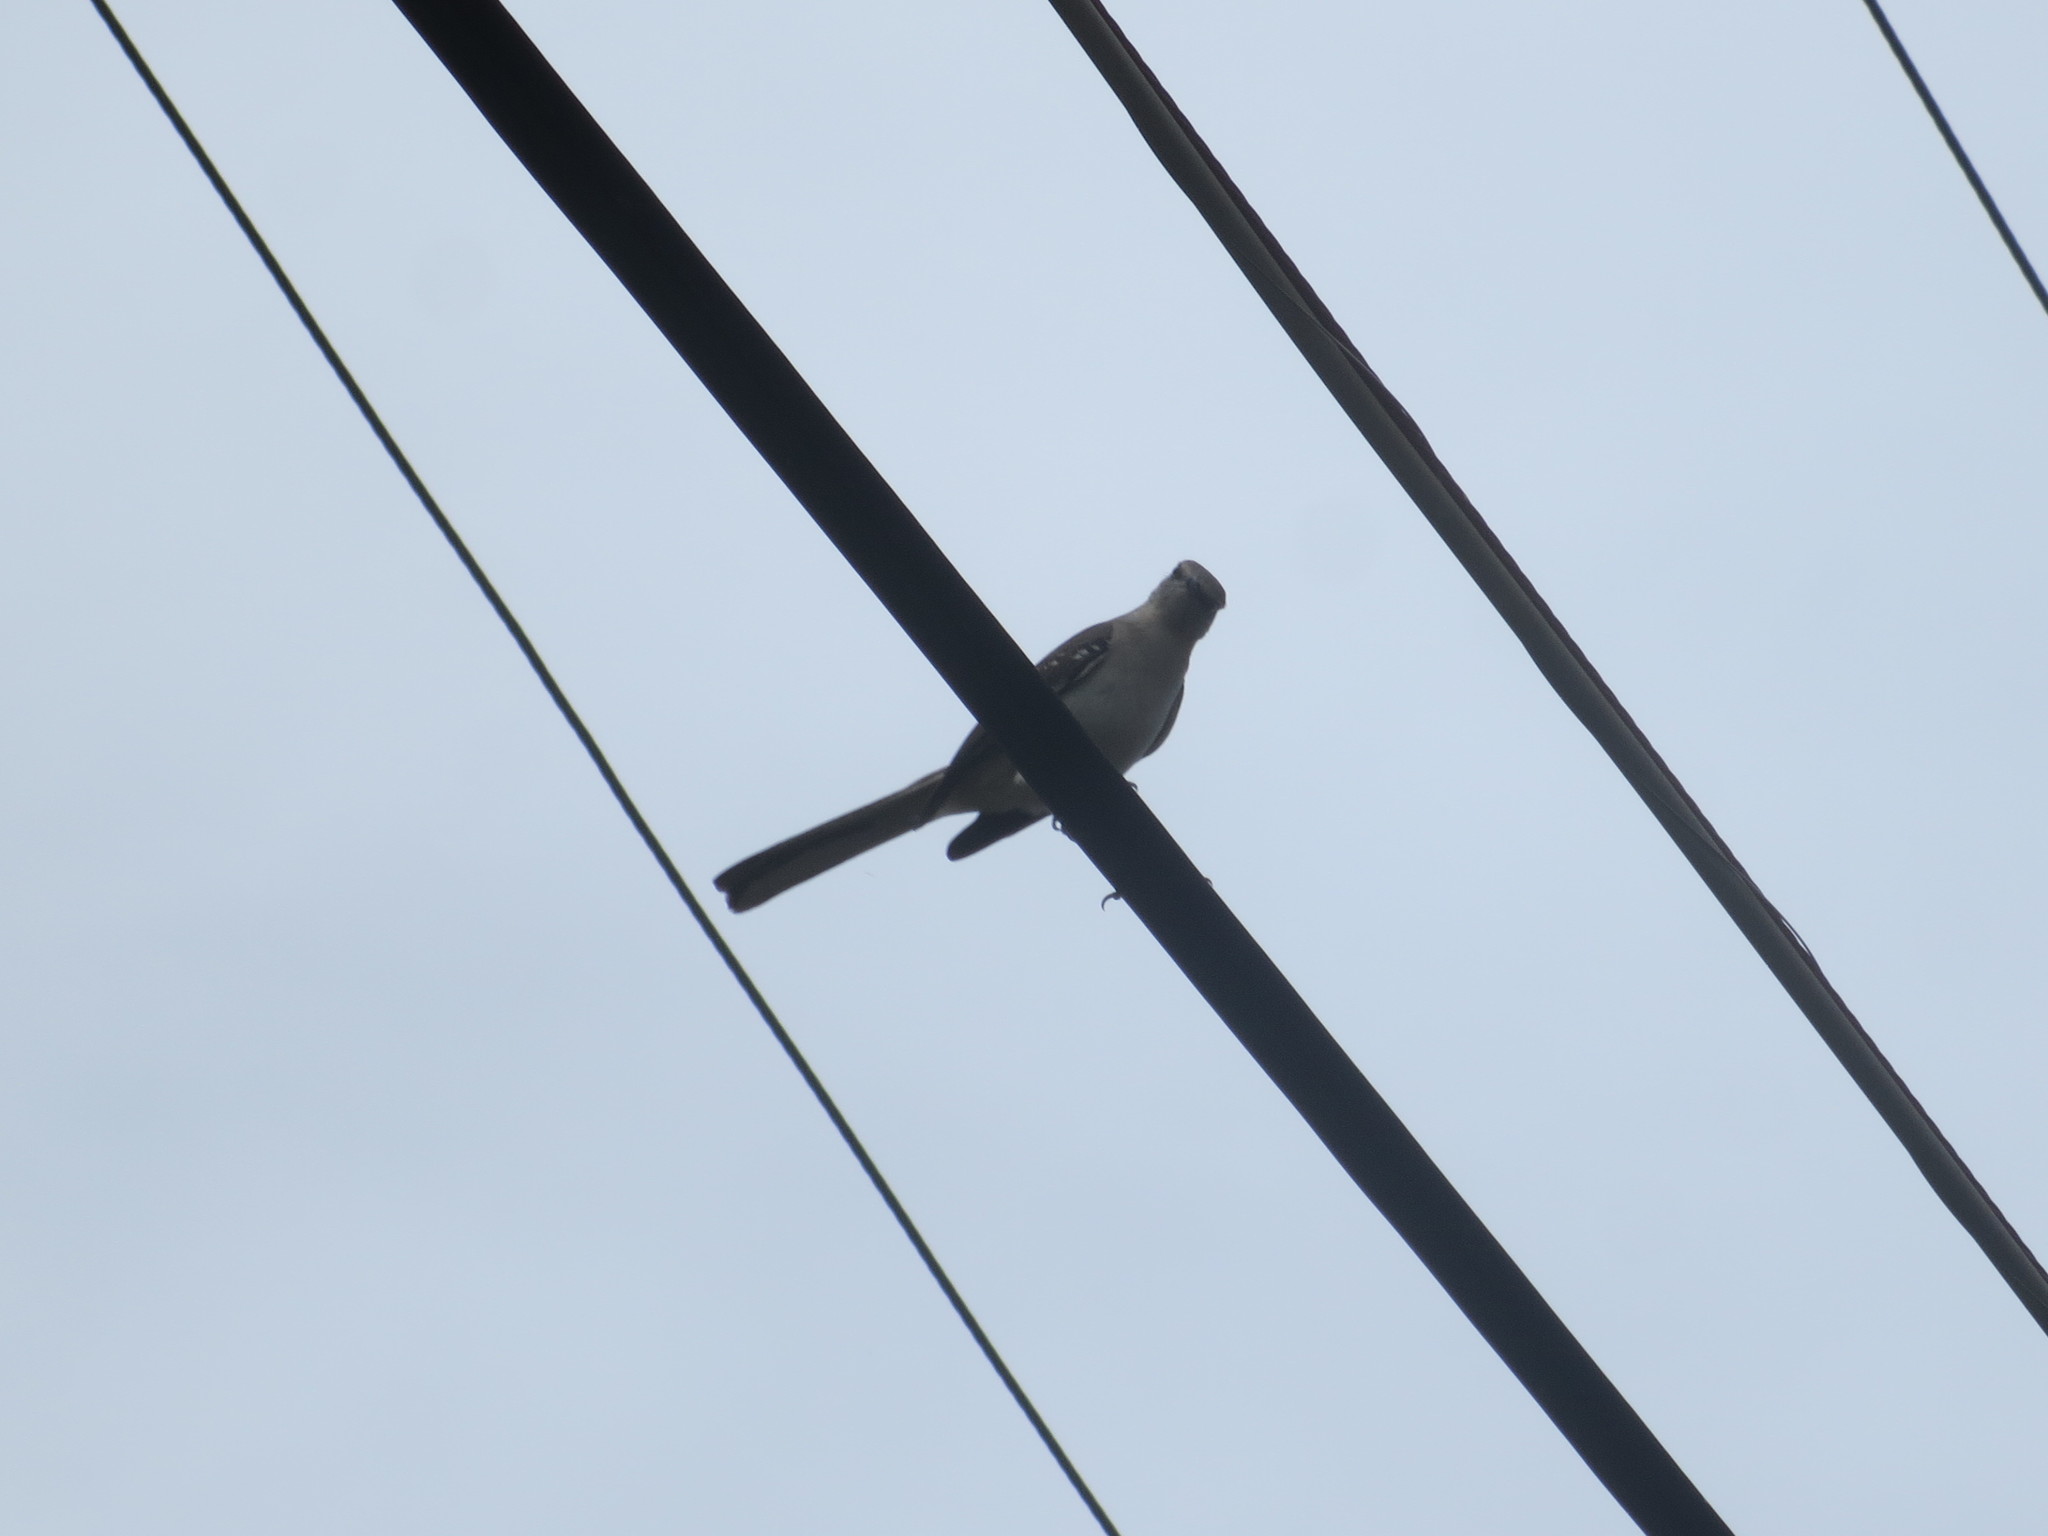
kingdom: Animalia
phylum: Chordata
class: Aves
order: Passeriformes
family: Mimidae
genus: Mimus
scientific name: Mimus polyglottos
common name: Northern mockingbird
